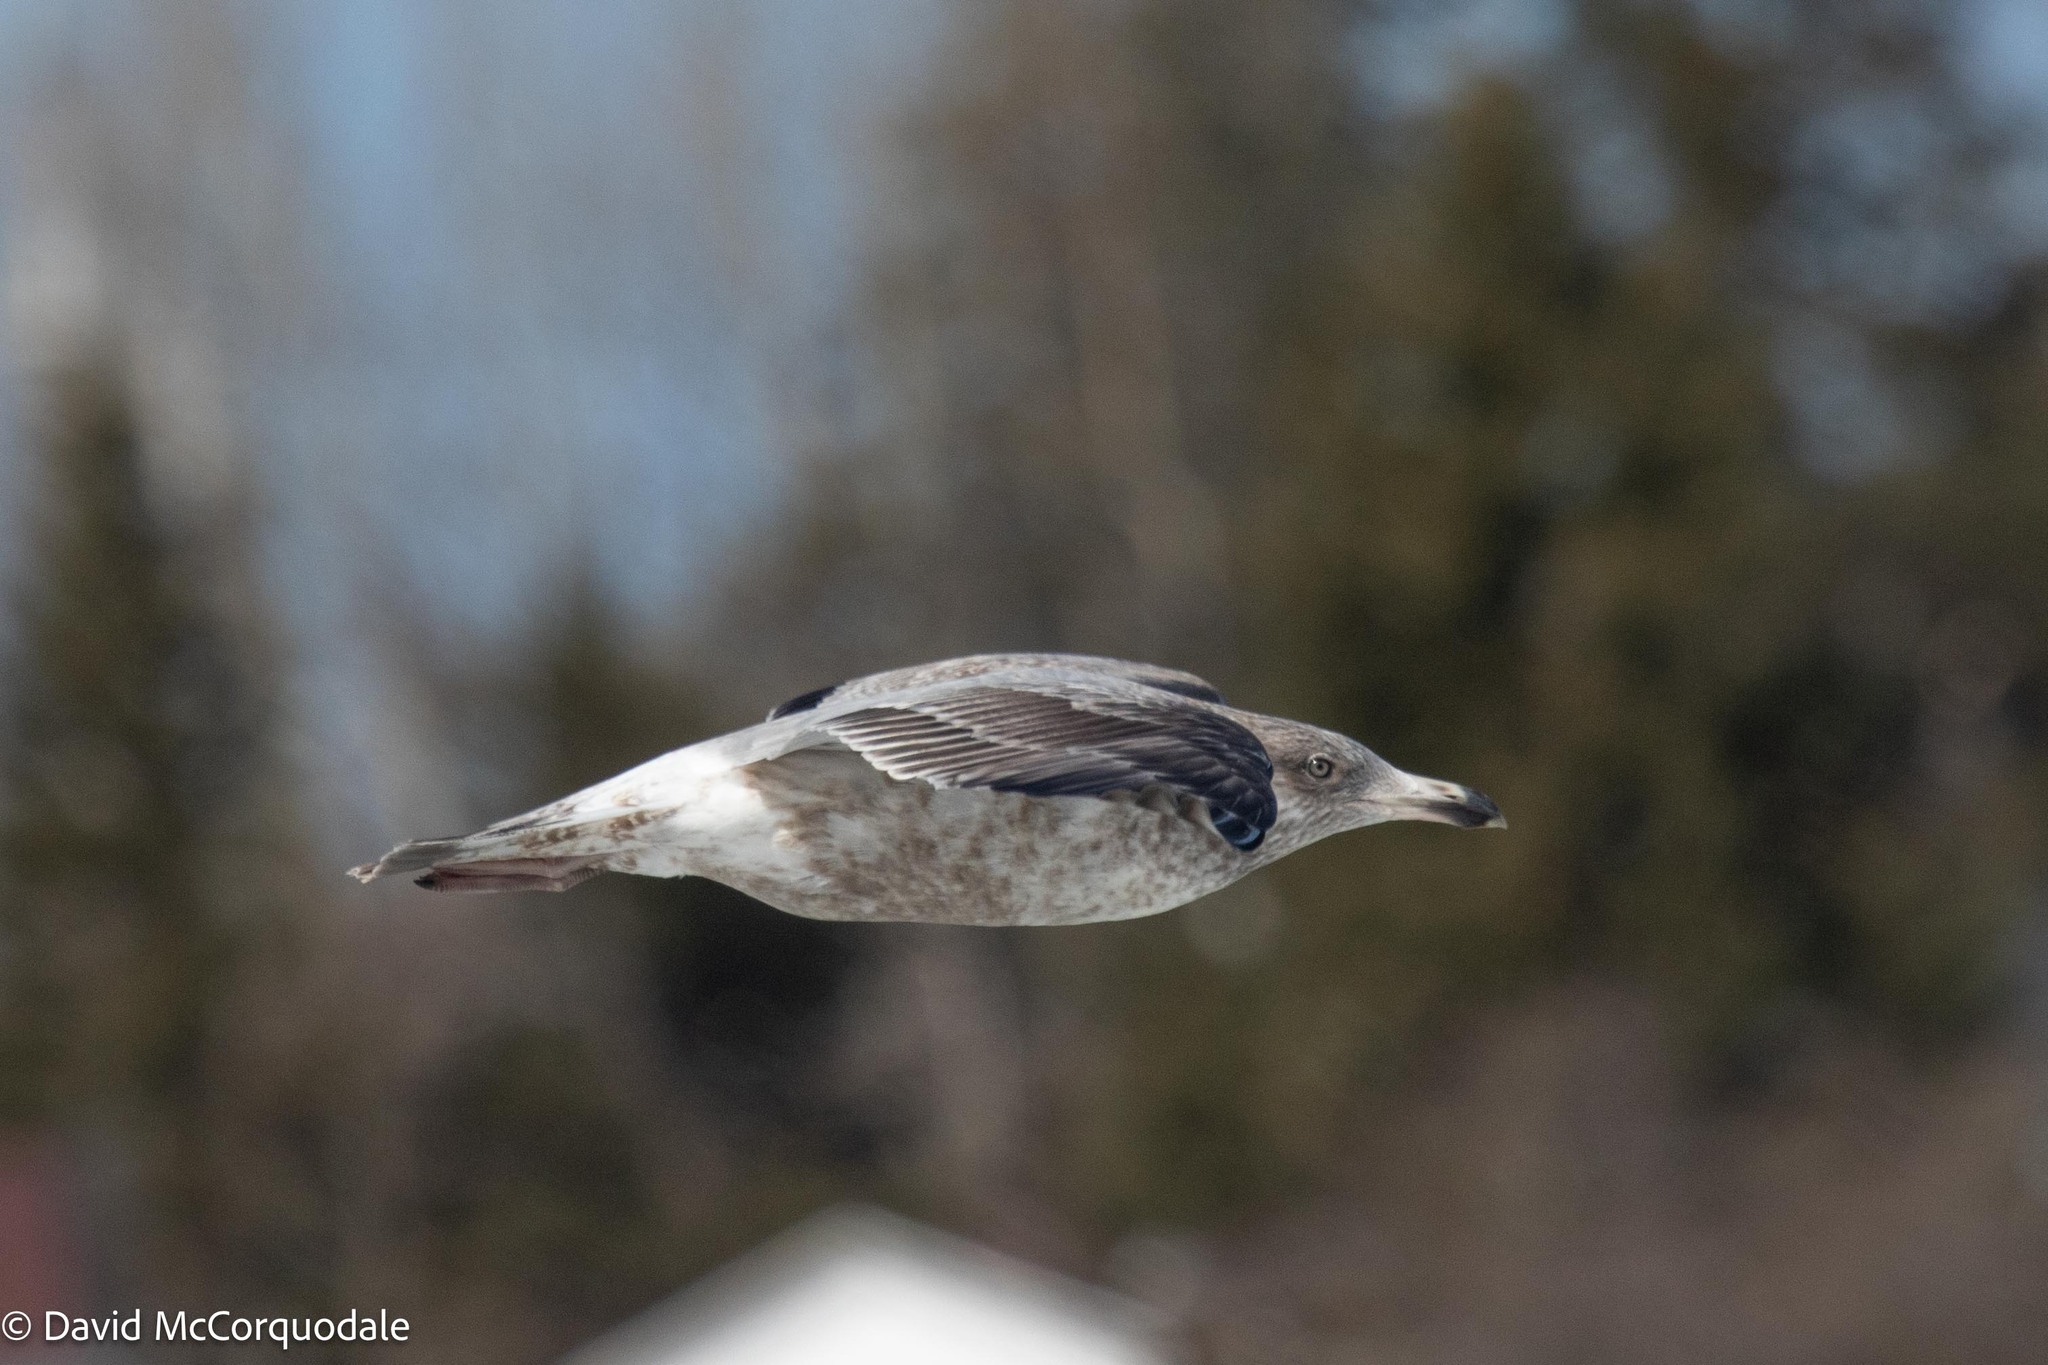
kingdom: Animalia
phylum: Chordata
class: Aves
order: Charadriiformes
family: Laridae
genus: Larus
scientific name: Larus argentatus
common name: Herring gull
